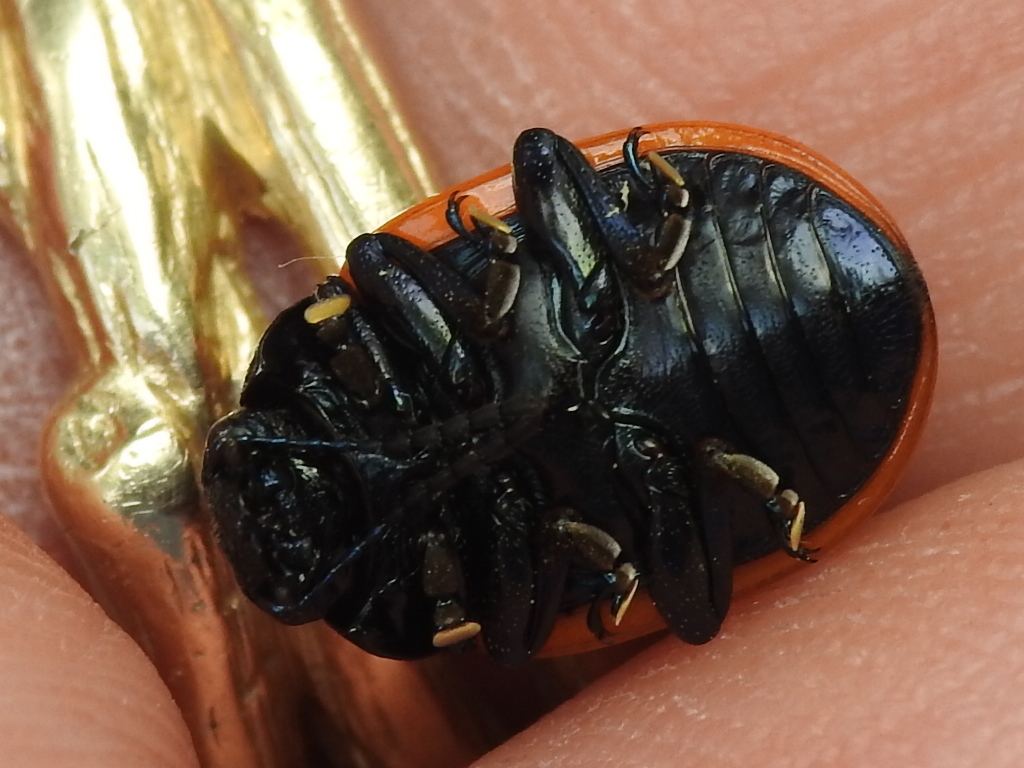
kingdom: Animalia
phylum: Arthropoda
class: Insecta
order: Coleoptera
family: Chrysomelidae
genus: Labidomera
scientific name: Labidomera clivicollis
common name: Swamp milkweed leaf beetle
